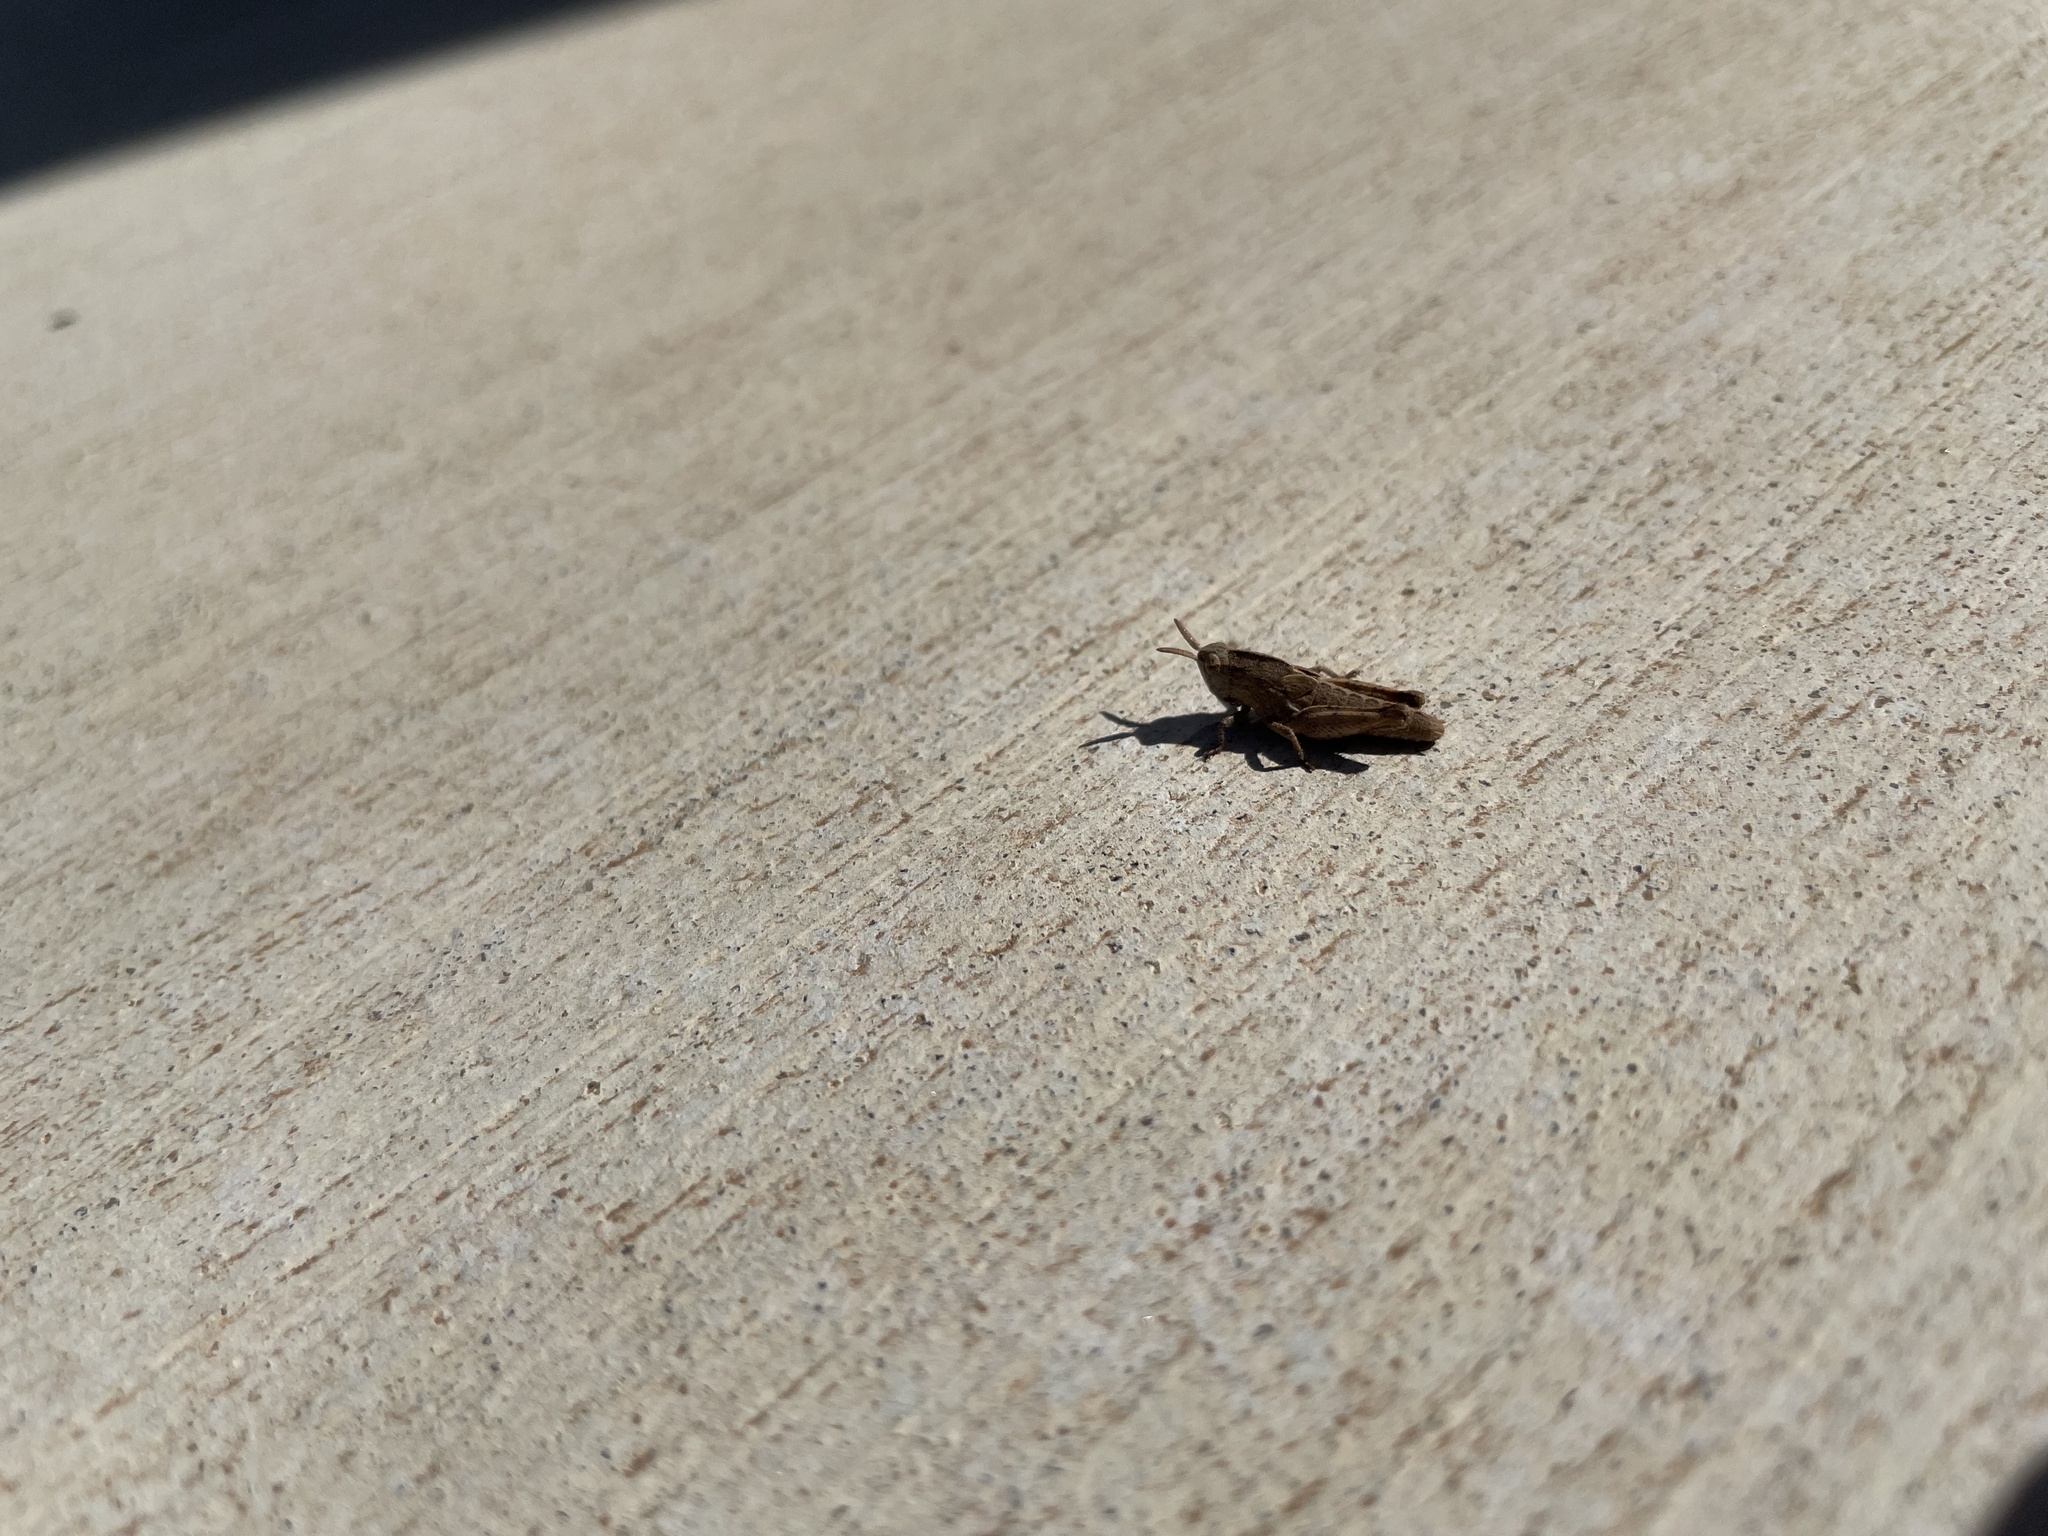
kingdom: Animalia
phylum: Arthropoda
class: Insecta
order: Orthoptera
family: Acrididae
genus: Chortophaga
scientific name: Chortophaga viridifasciata
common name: Green-striped grasshopper
